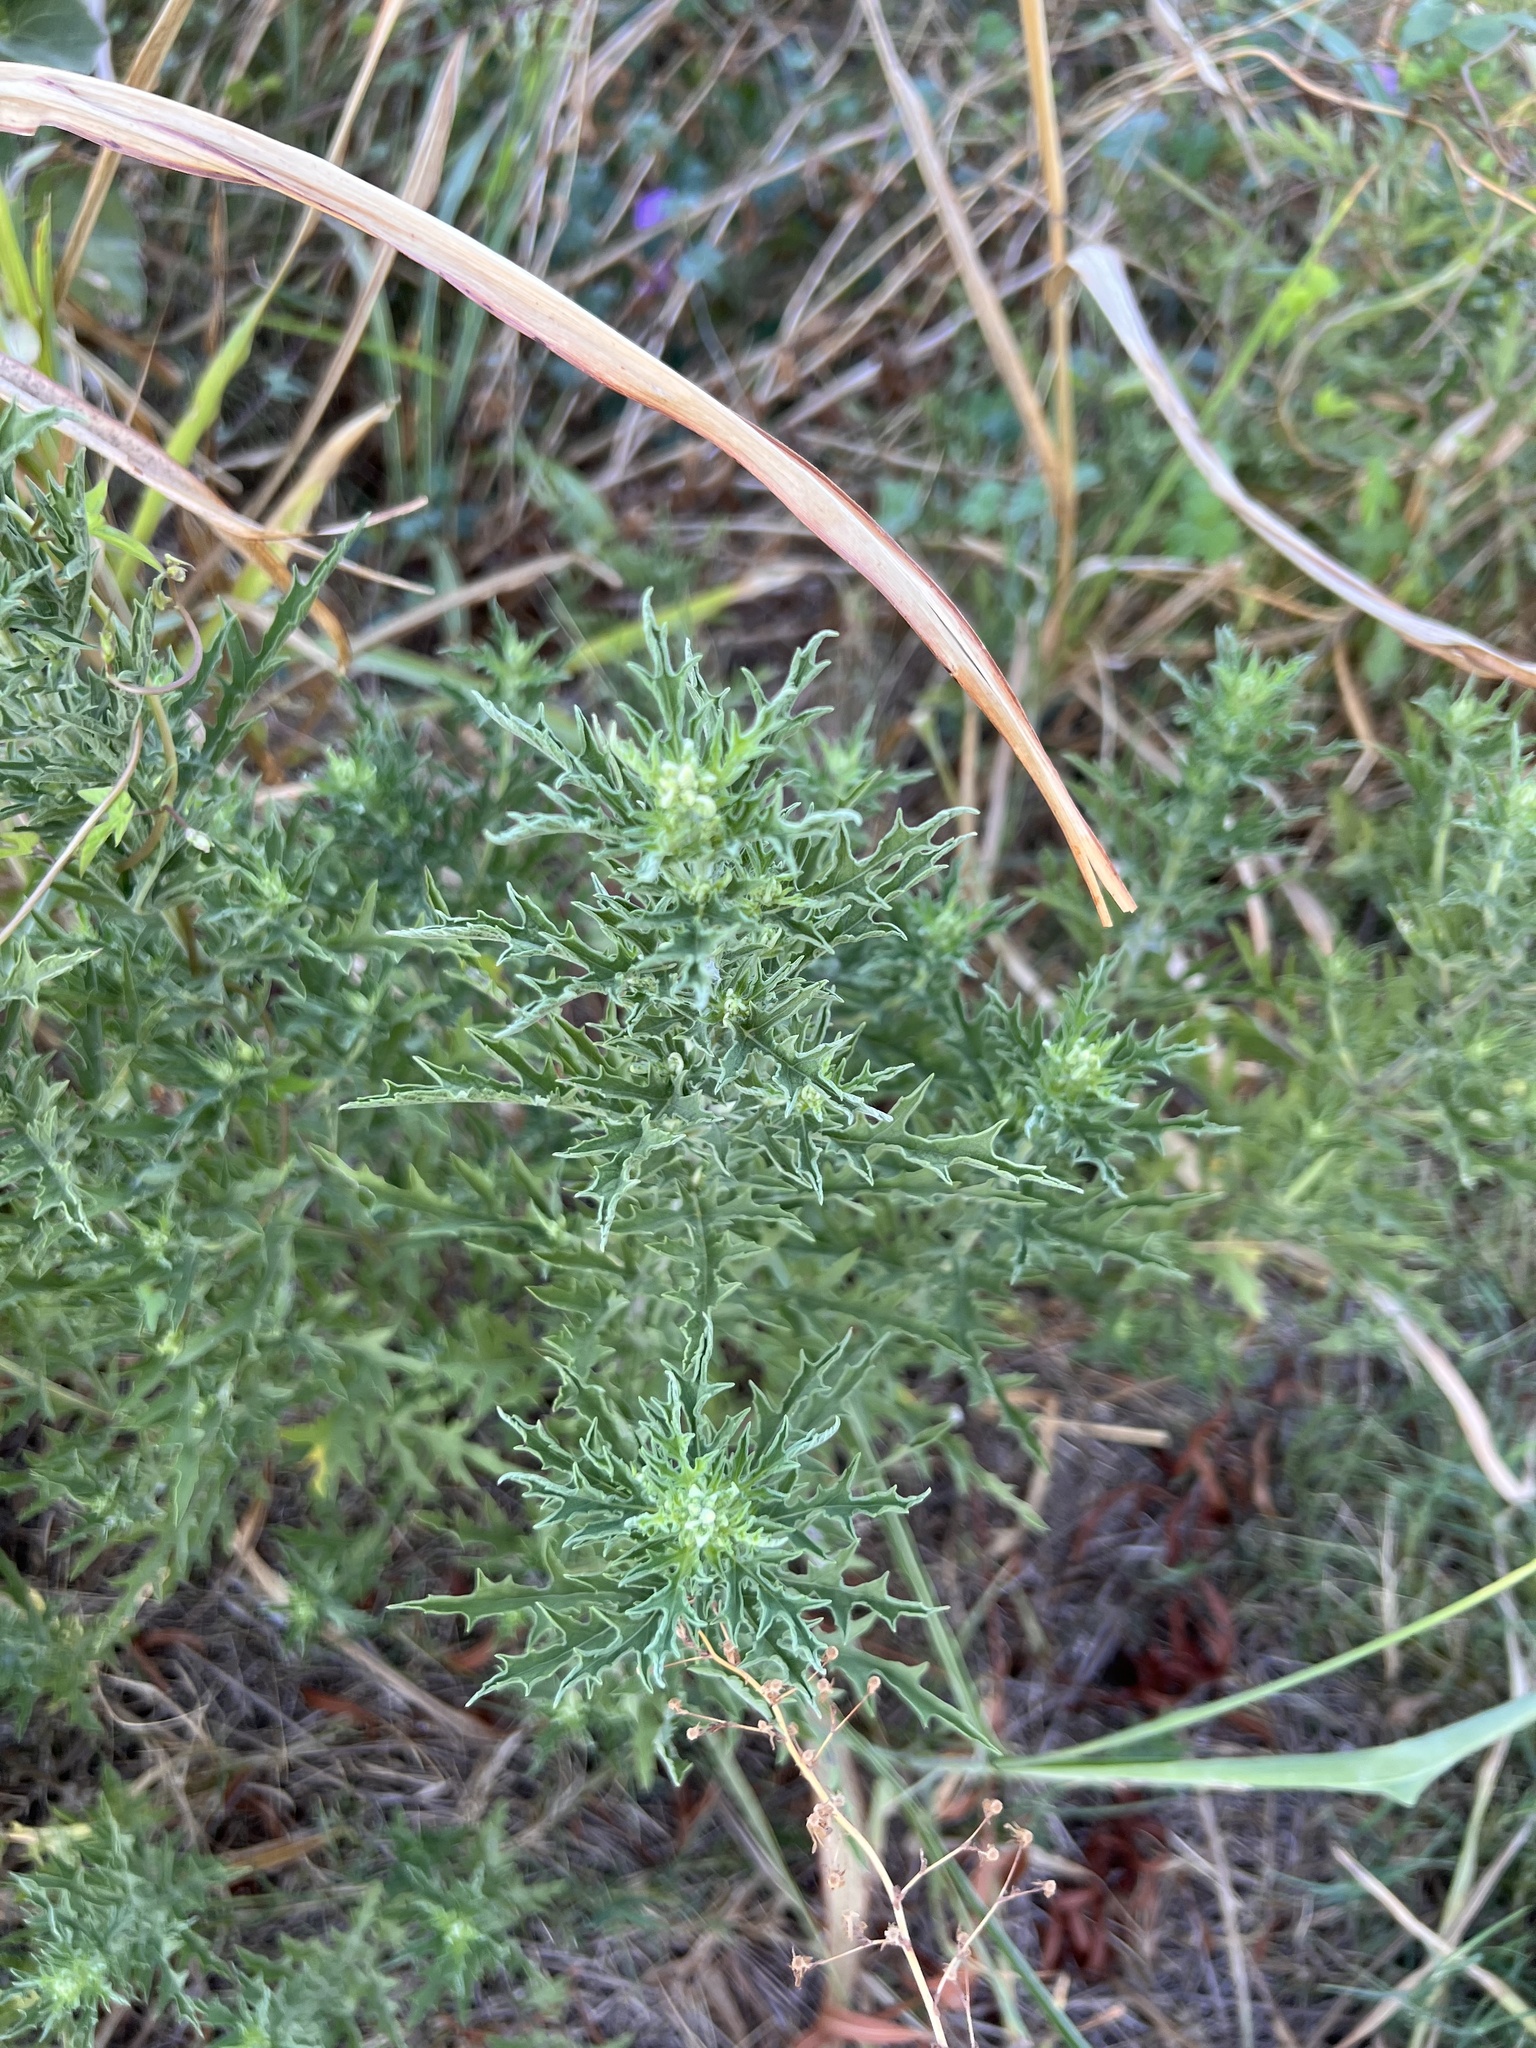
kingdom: Plantae
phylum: Tracheophyta
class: Magnoliopsida
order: Asterales
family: Asteraceae
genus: Ambrosia
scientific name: Ambrosia psilostachya
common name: Perennial ragweed
